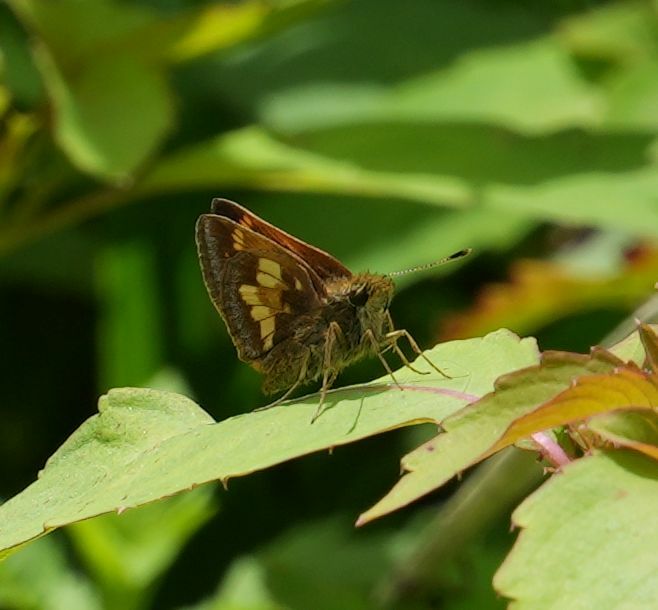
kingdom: Animalia
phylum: Arthropoda
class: Insecta
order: Lepidoptera
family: Hesperiidae
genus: Lon
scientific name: Lon hobomok
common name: Hobomok skipper
